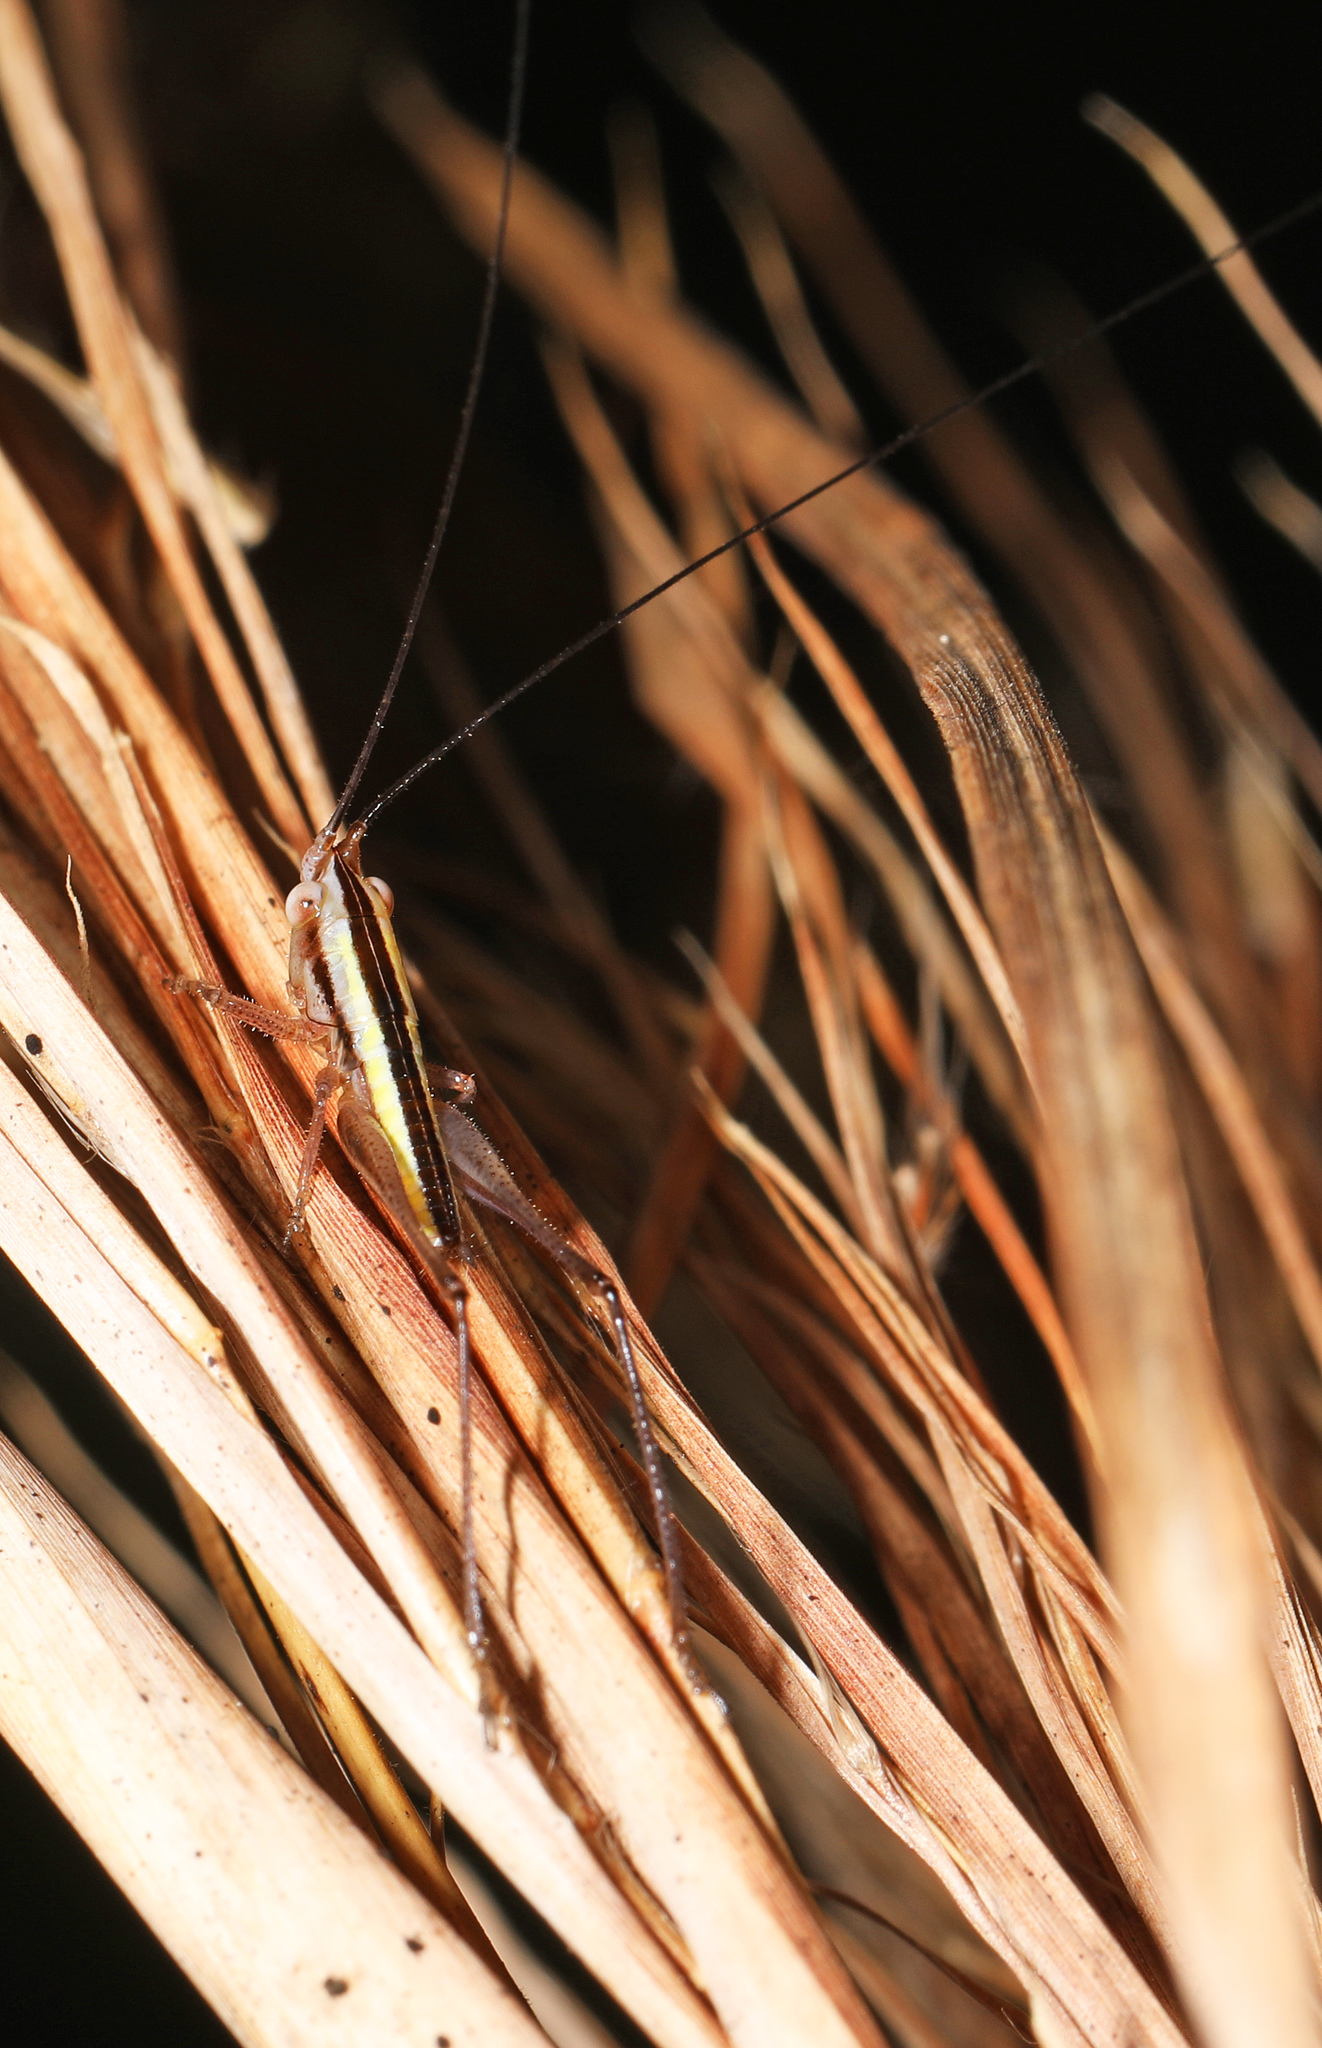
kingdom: Animalia
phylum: Arthropoda
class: Insecta
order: Orthoptera
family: Tettigoniidae
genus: Conocephalus
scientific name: Conocephalus gracillimus
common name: Graceful meadow katydid
